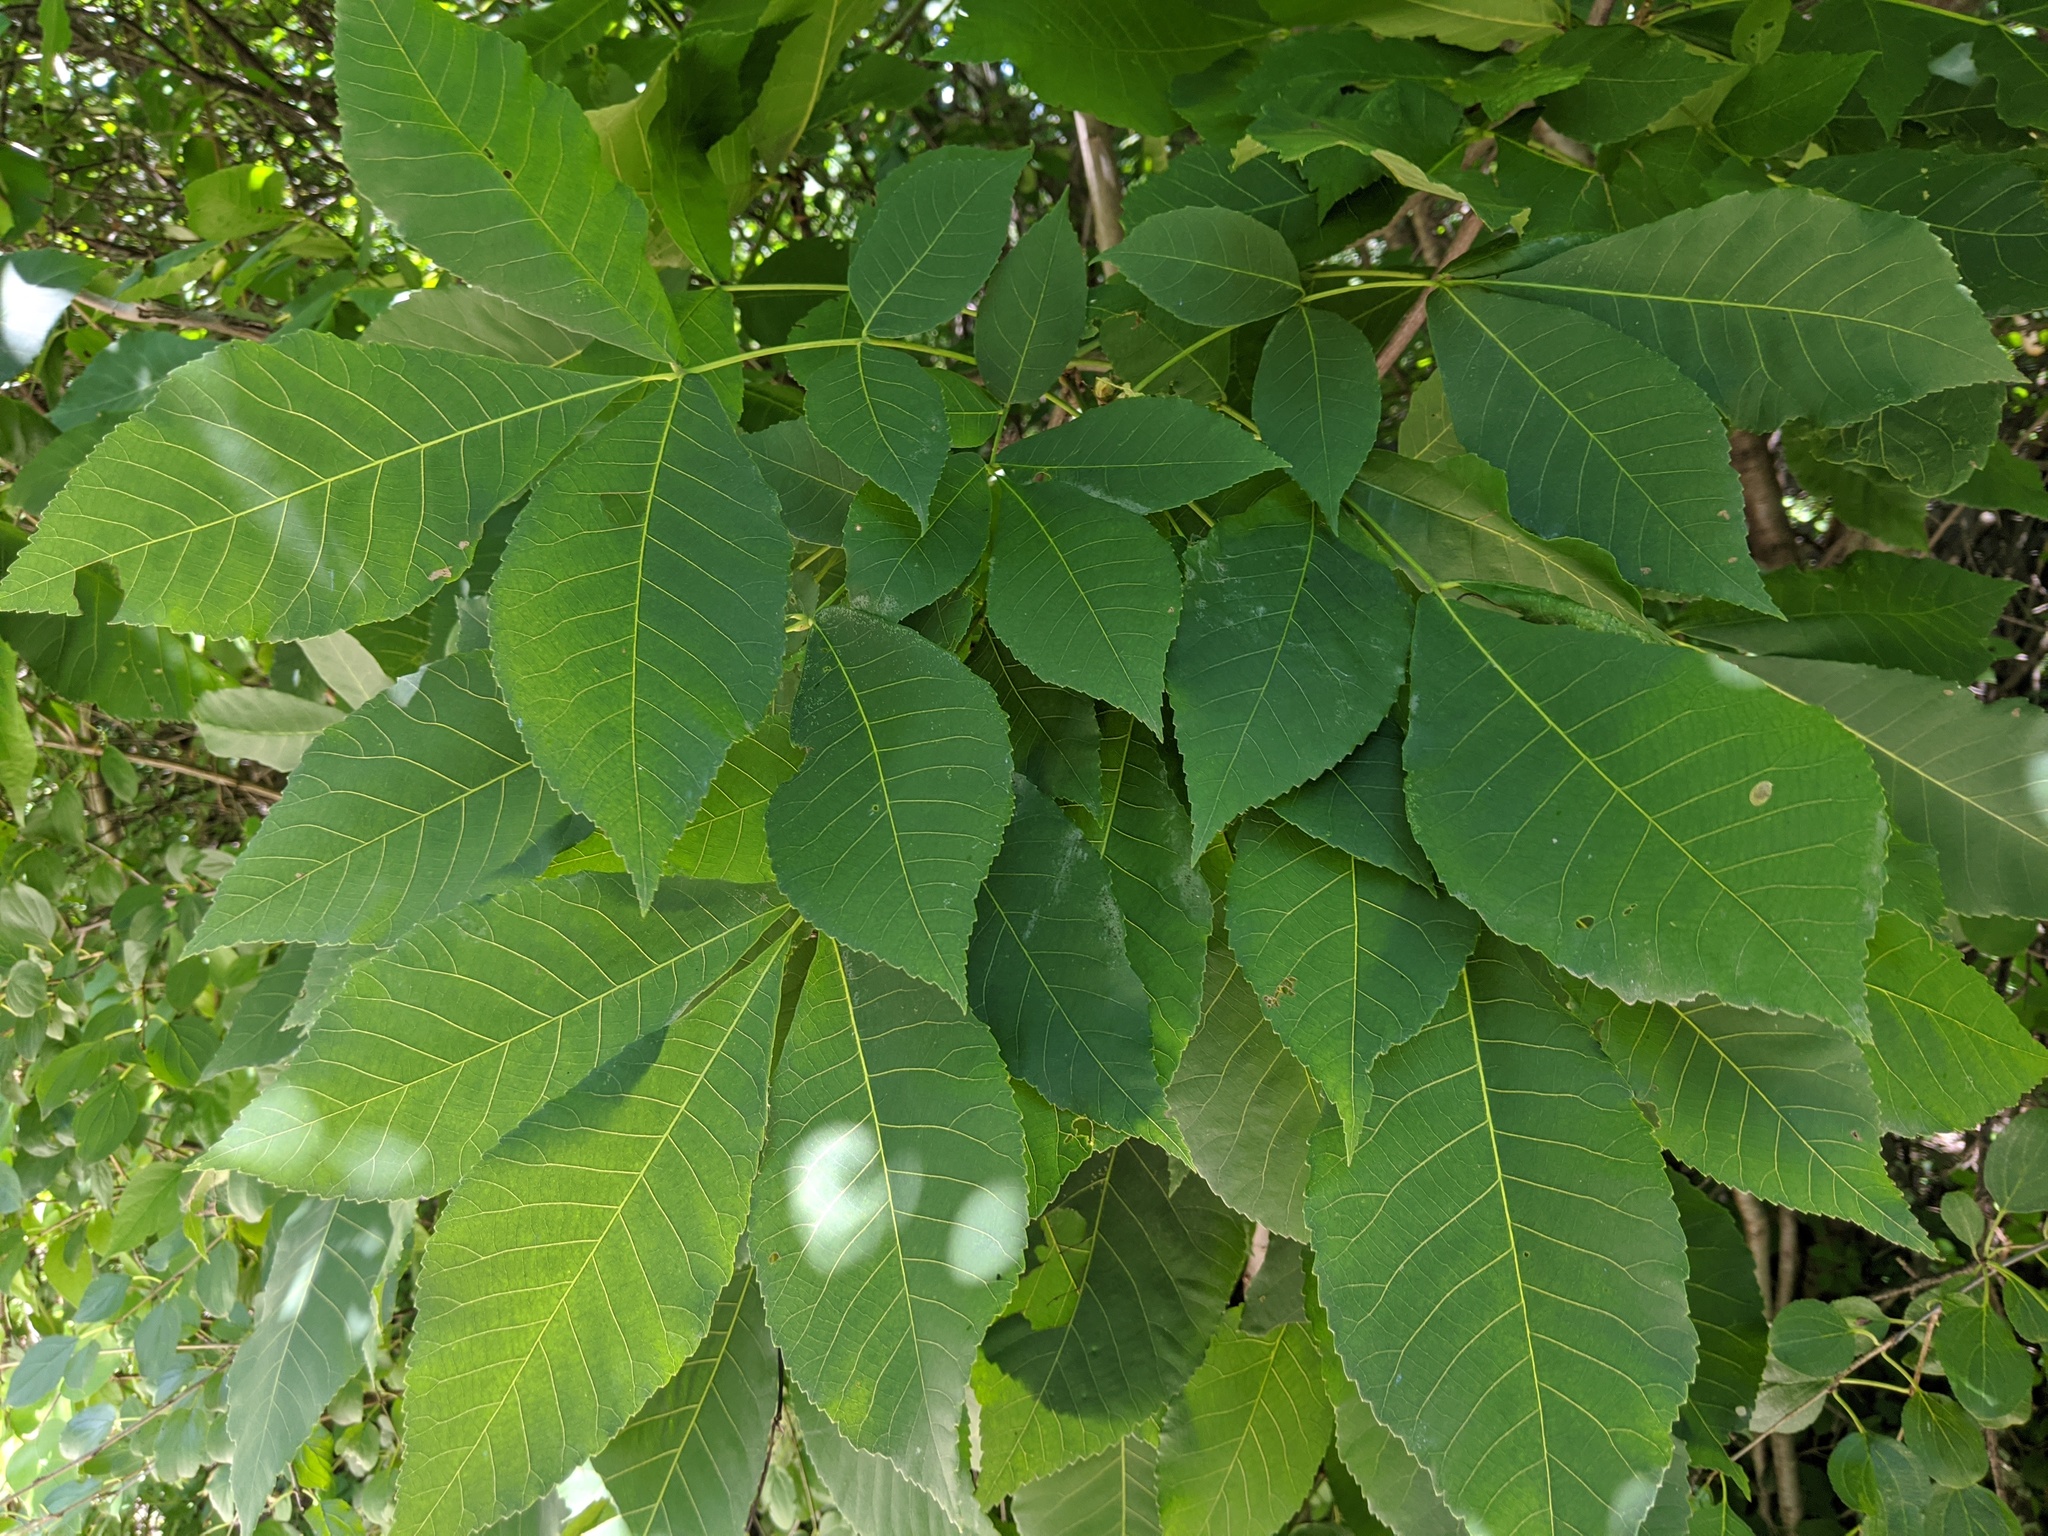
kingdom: Plantae
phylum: Tracheophyta
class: Magnoliopsida
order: Fagales
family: Juglandaceae
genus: Carya
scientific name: Carya ovata
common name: Shagbark hickory
